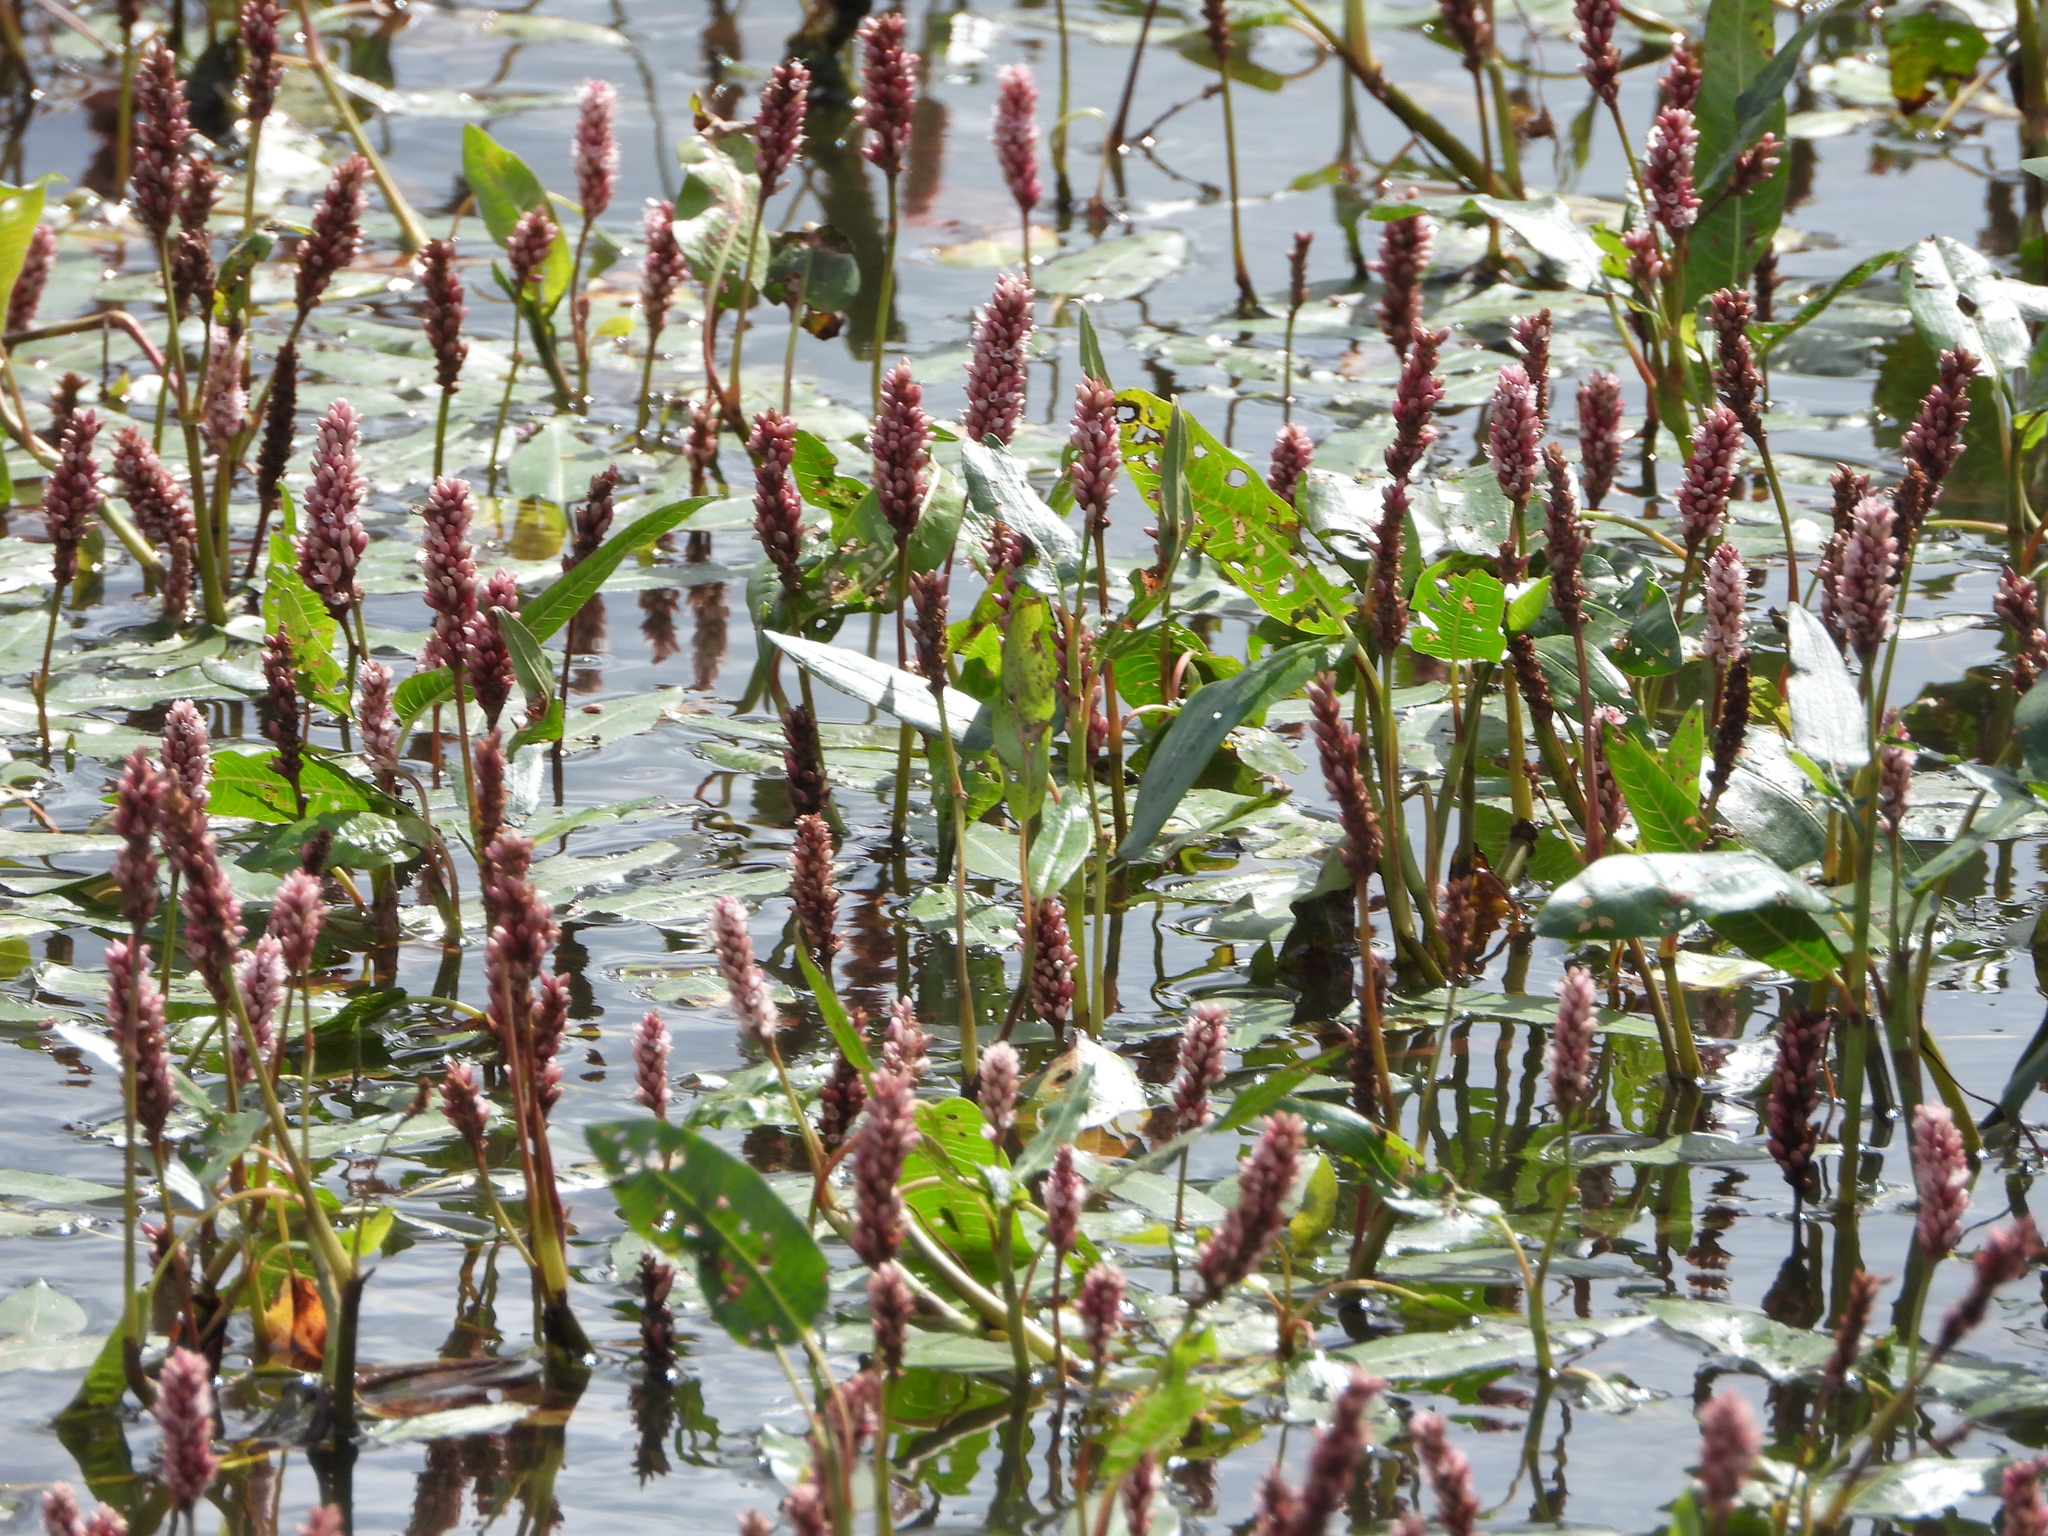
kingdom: Plantae
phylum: Tracheophyta
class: Magnoliopsida
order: Caryophyllales
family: Polygonaceae
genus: Persicaria
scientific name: Persicaria amphibia
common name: Amphibious bistort
